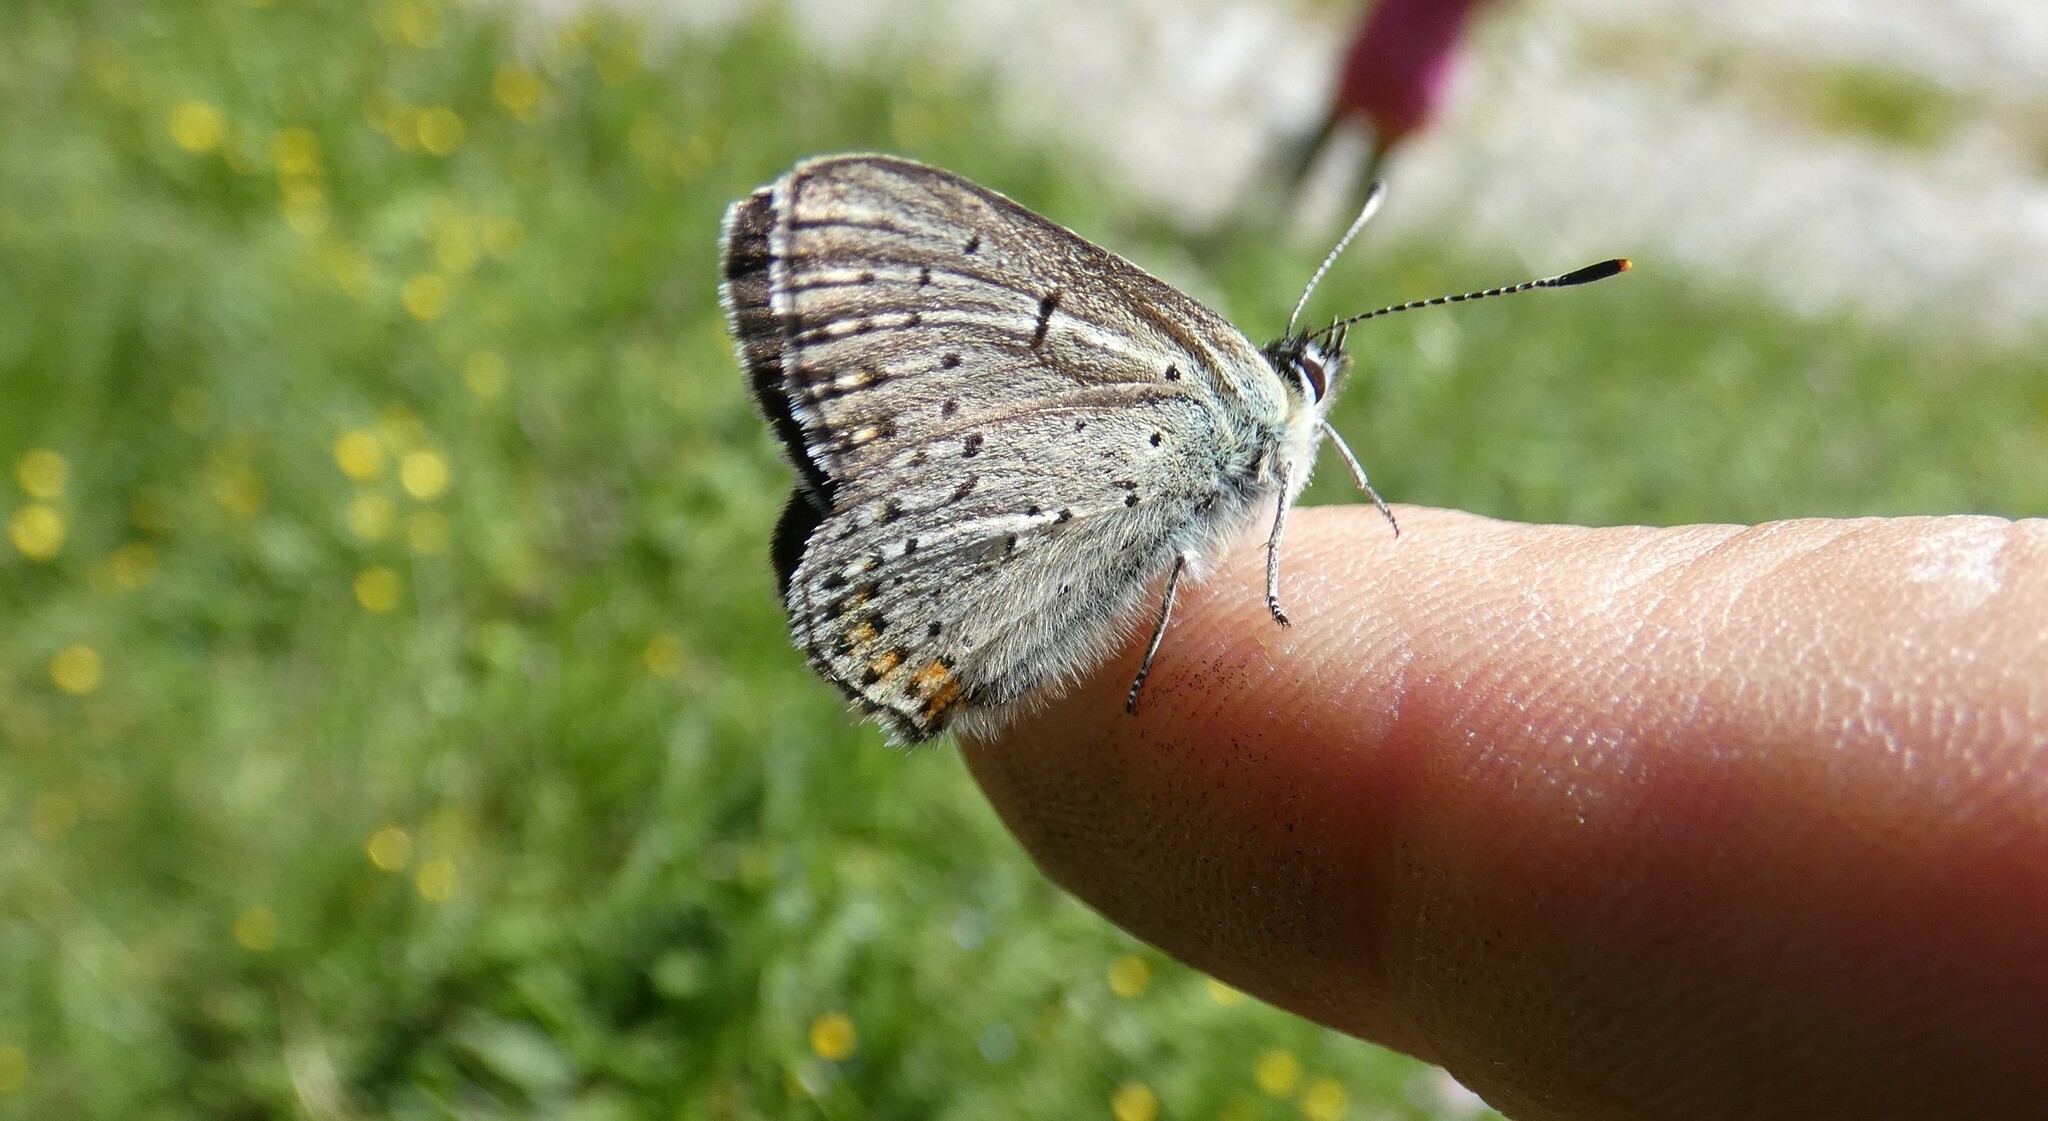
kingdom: Animalia
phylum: Arthropoda
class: Insecta
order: Lepidoptera
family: Lycaenidae
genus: Loweia
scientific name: Loweia tityrus
